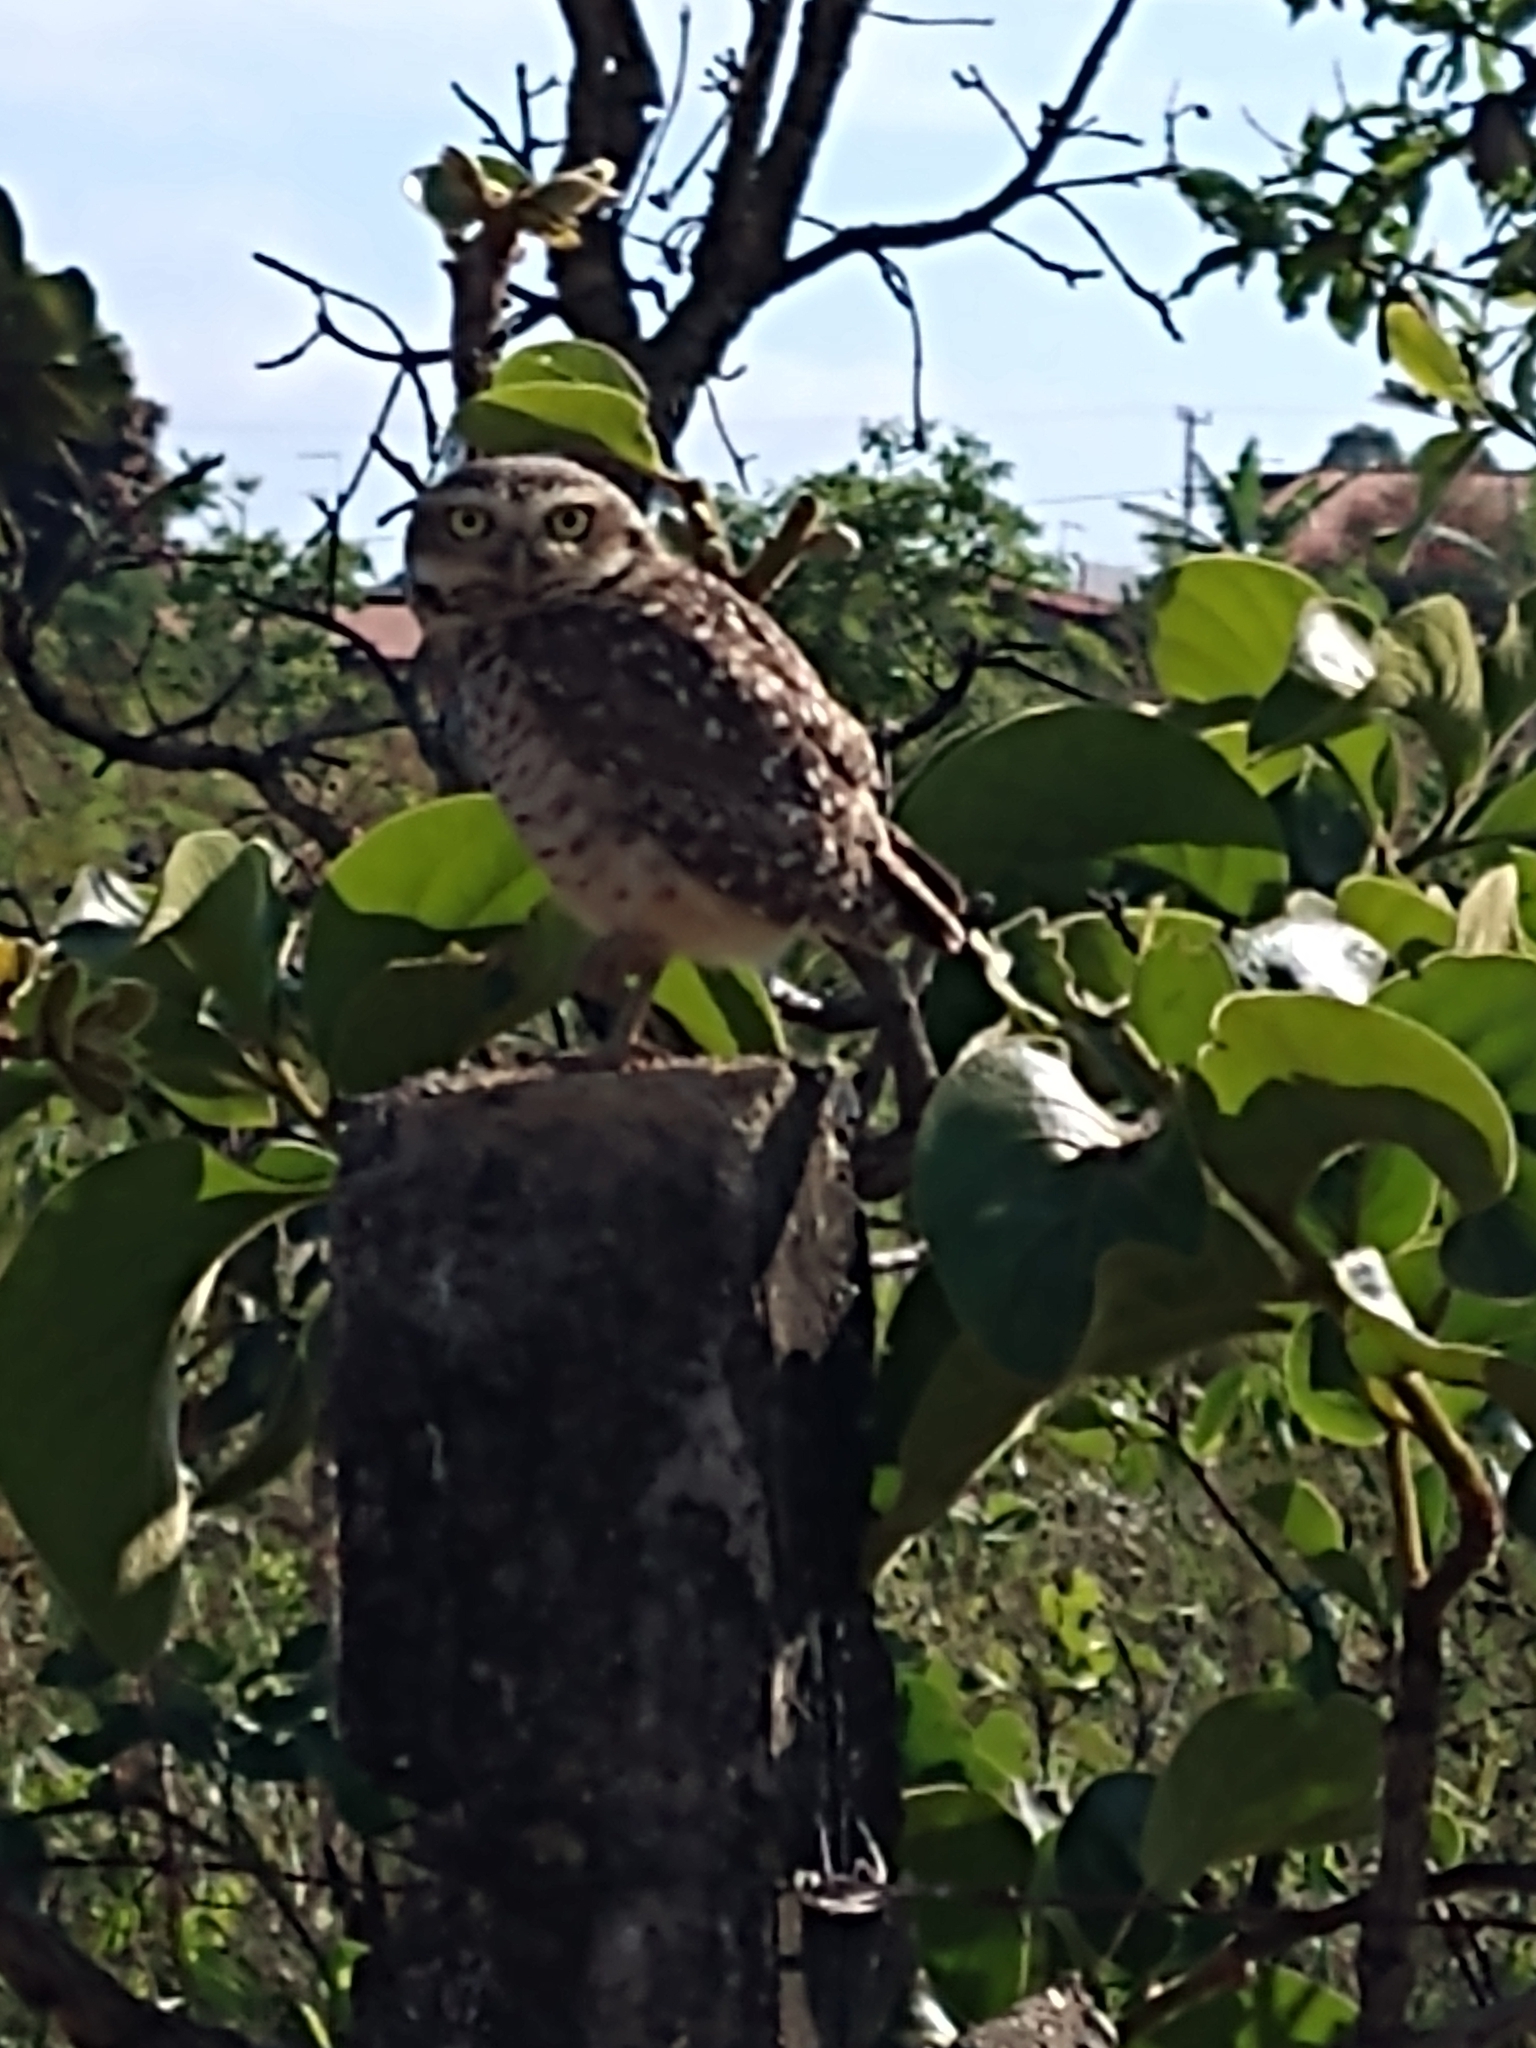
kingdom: Animalia
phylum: Chordata
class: Aves
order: Strigiformes
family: Strigidae
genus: Athene
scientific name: Athene cunicularia
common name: Burrowing owl
